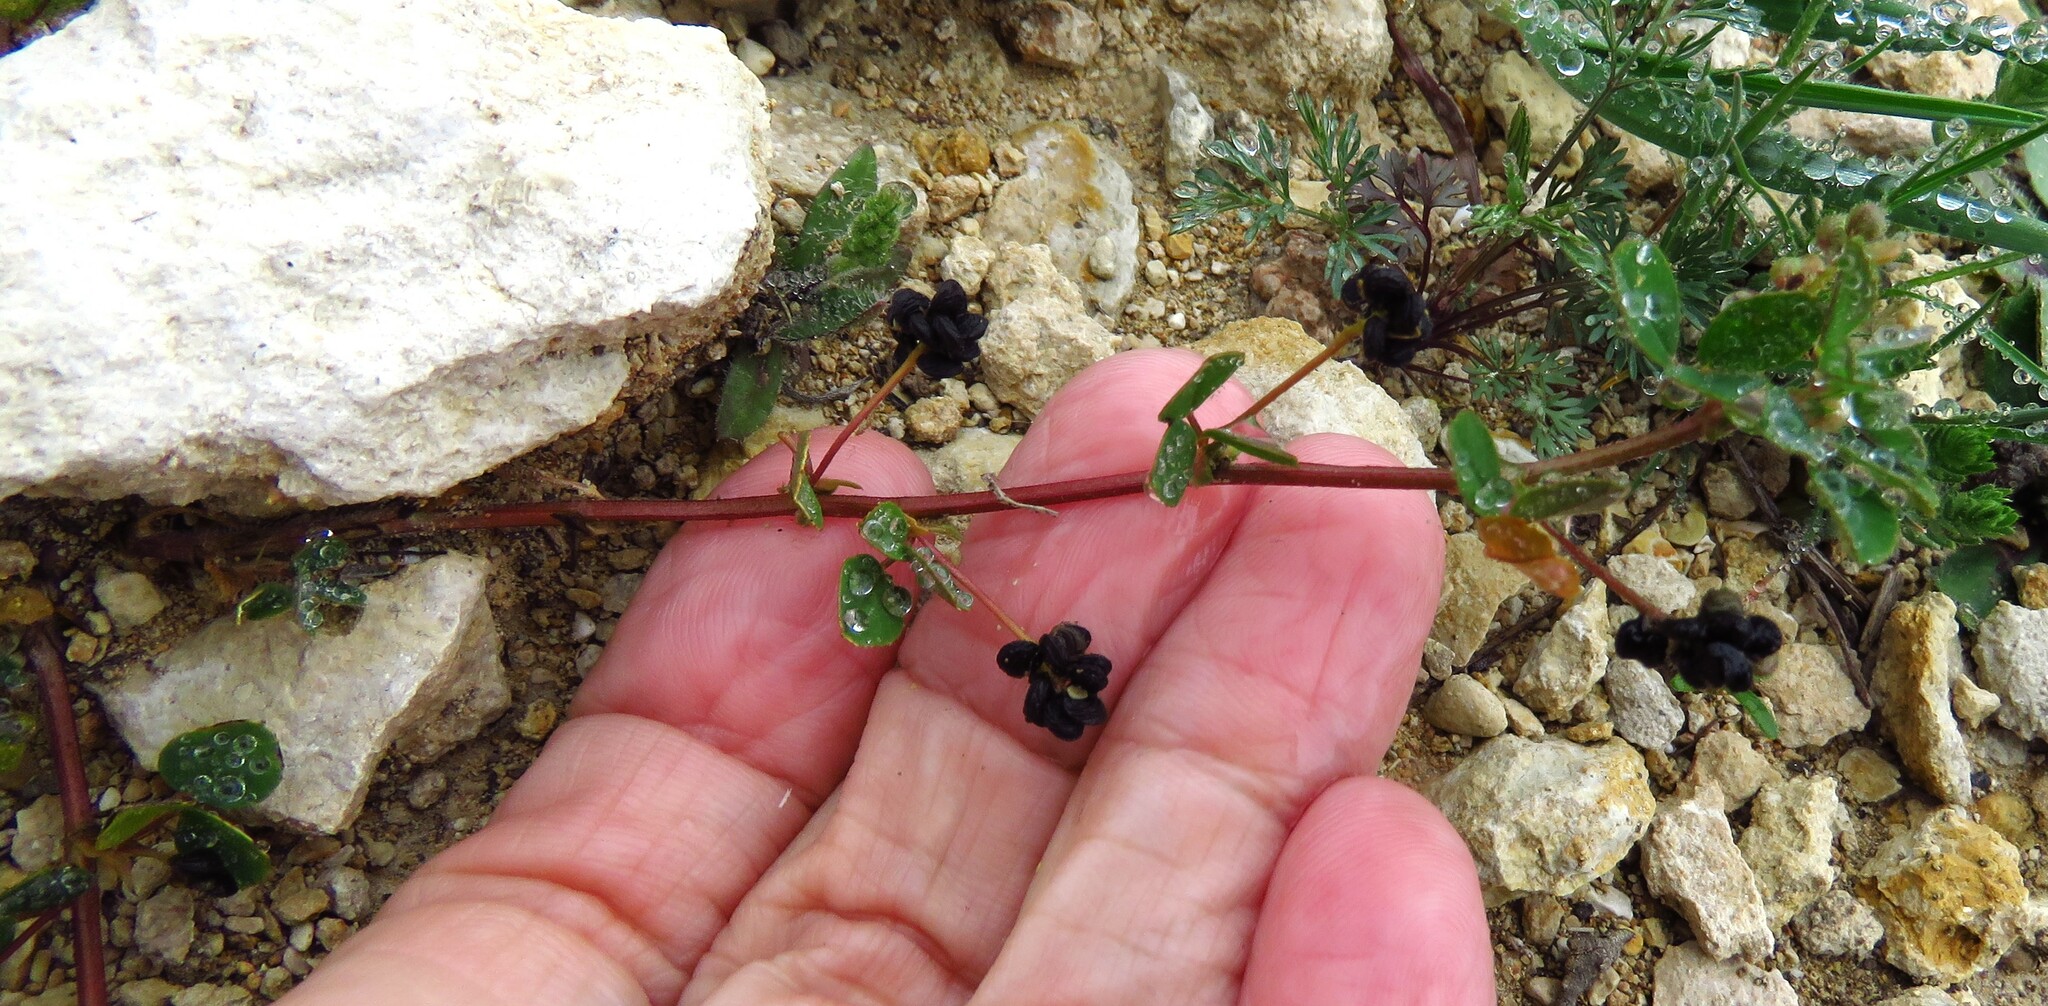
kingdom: Plantae
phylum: Tracheophyta
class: Magnoliopsida
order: Fabales
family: Fabaceae
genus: Medicago
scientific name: Medicago lupulina
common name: Black medick
